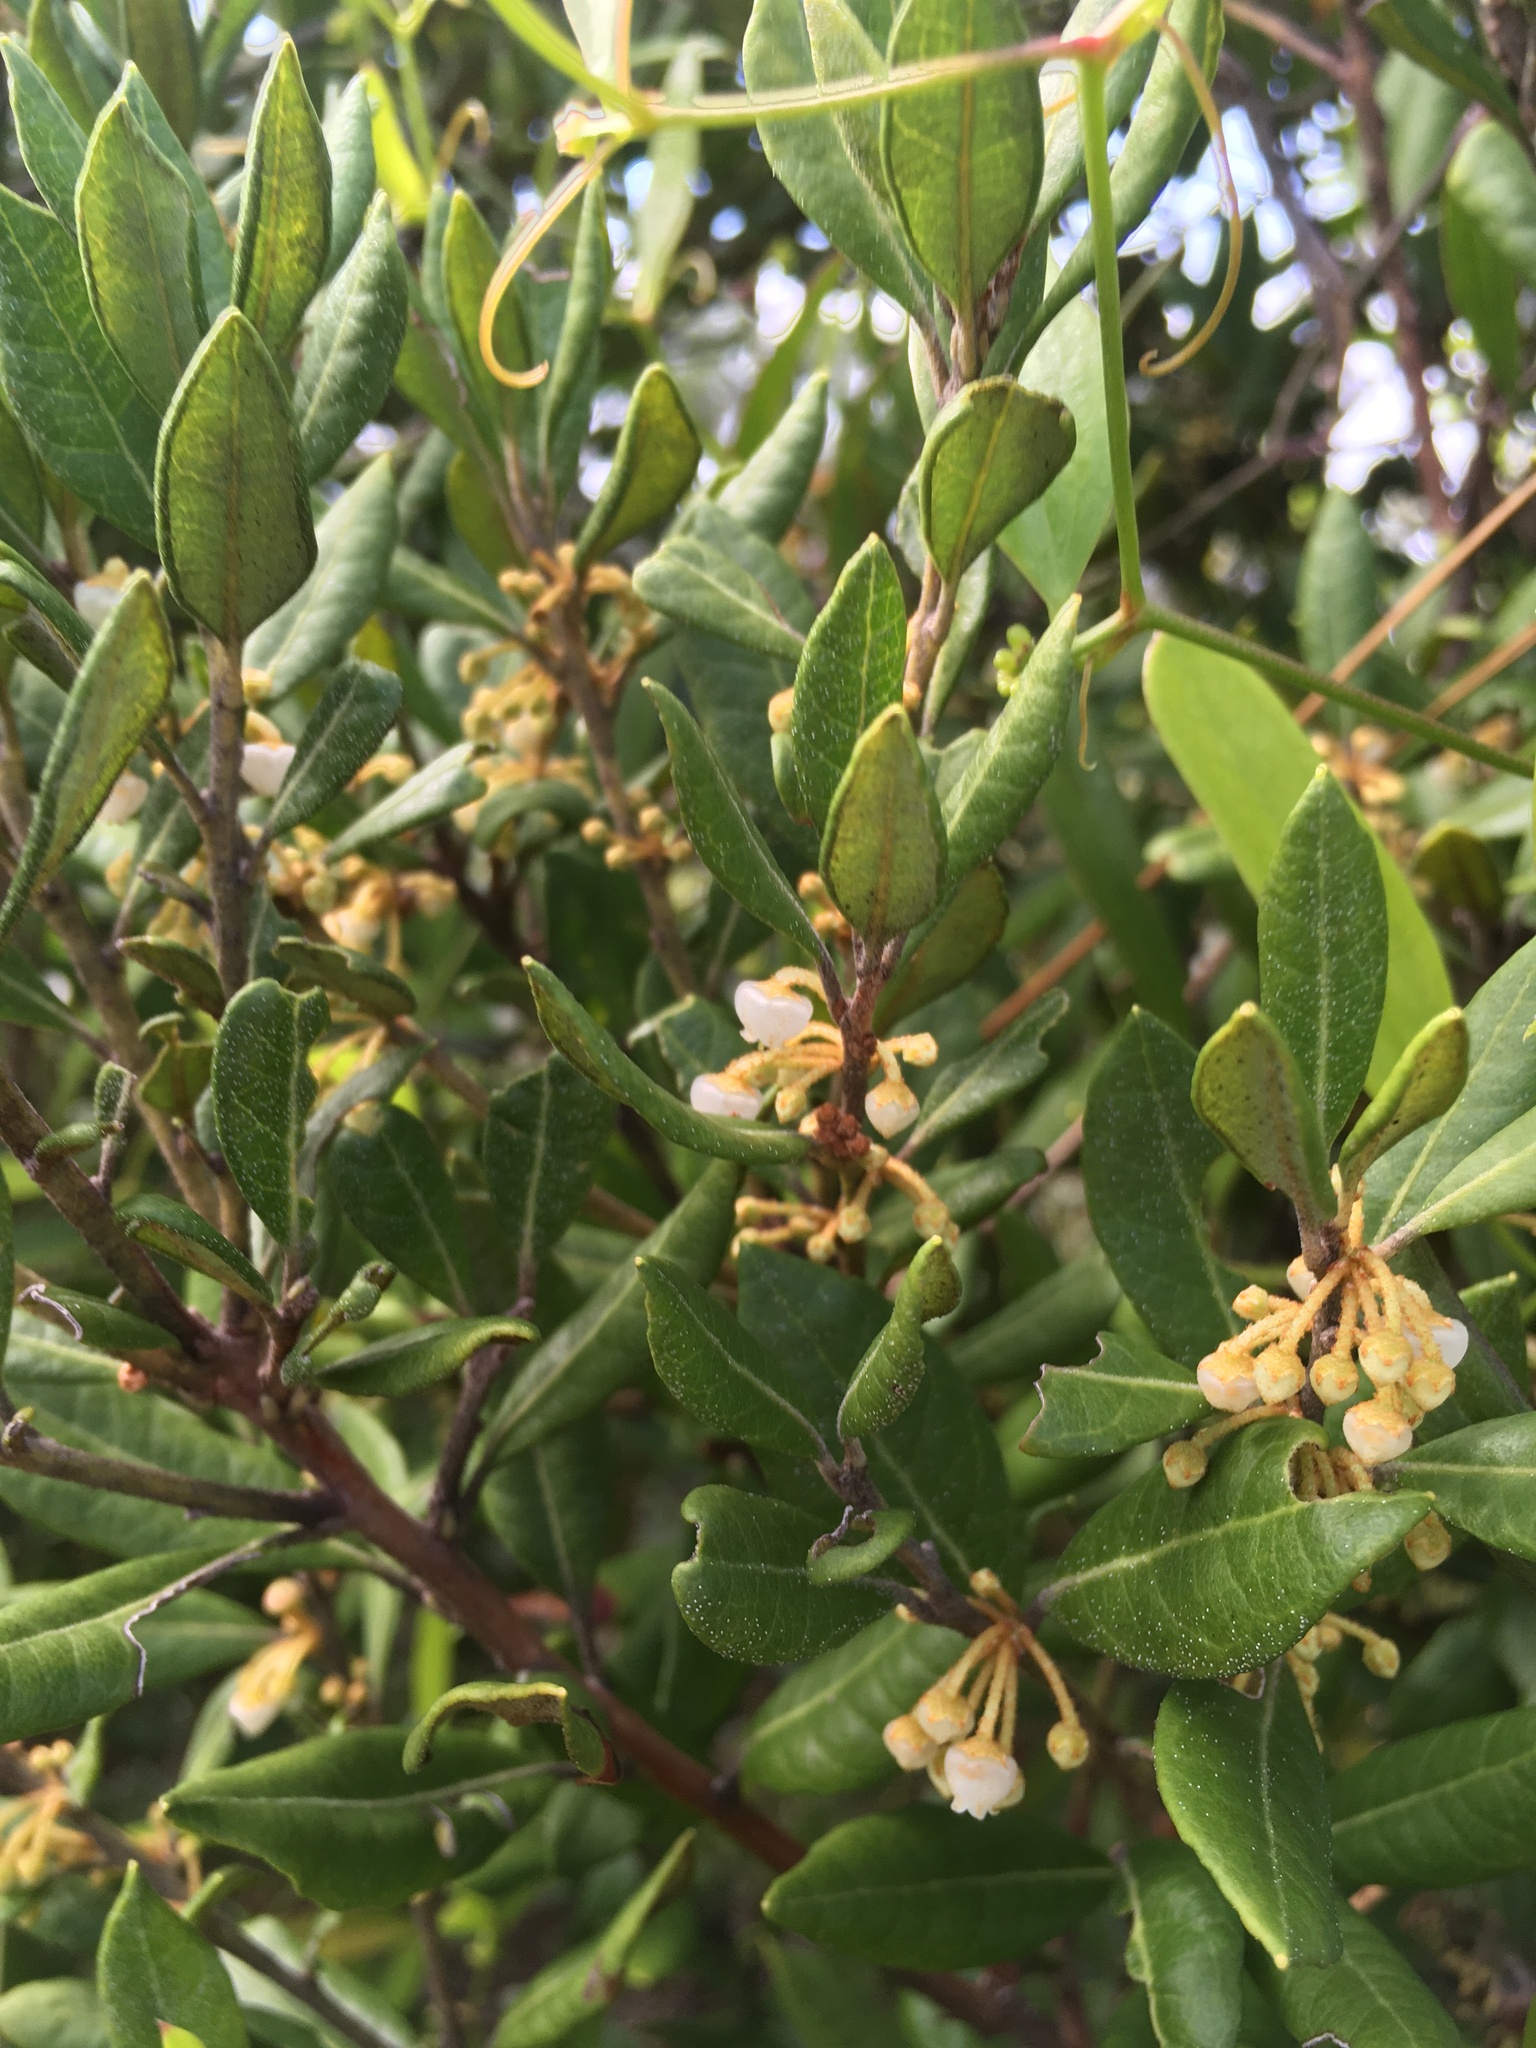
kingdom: Plantae
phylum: Tracheophyta
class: Magnoliopsida
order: Ericales
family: Ericaceae
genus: Lyonia
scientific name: Lyonia ferruginea
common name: Rusty lyonia
